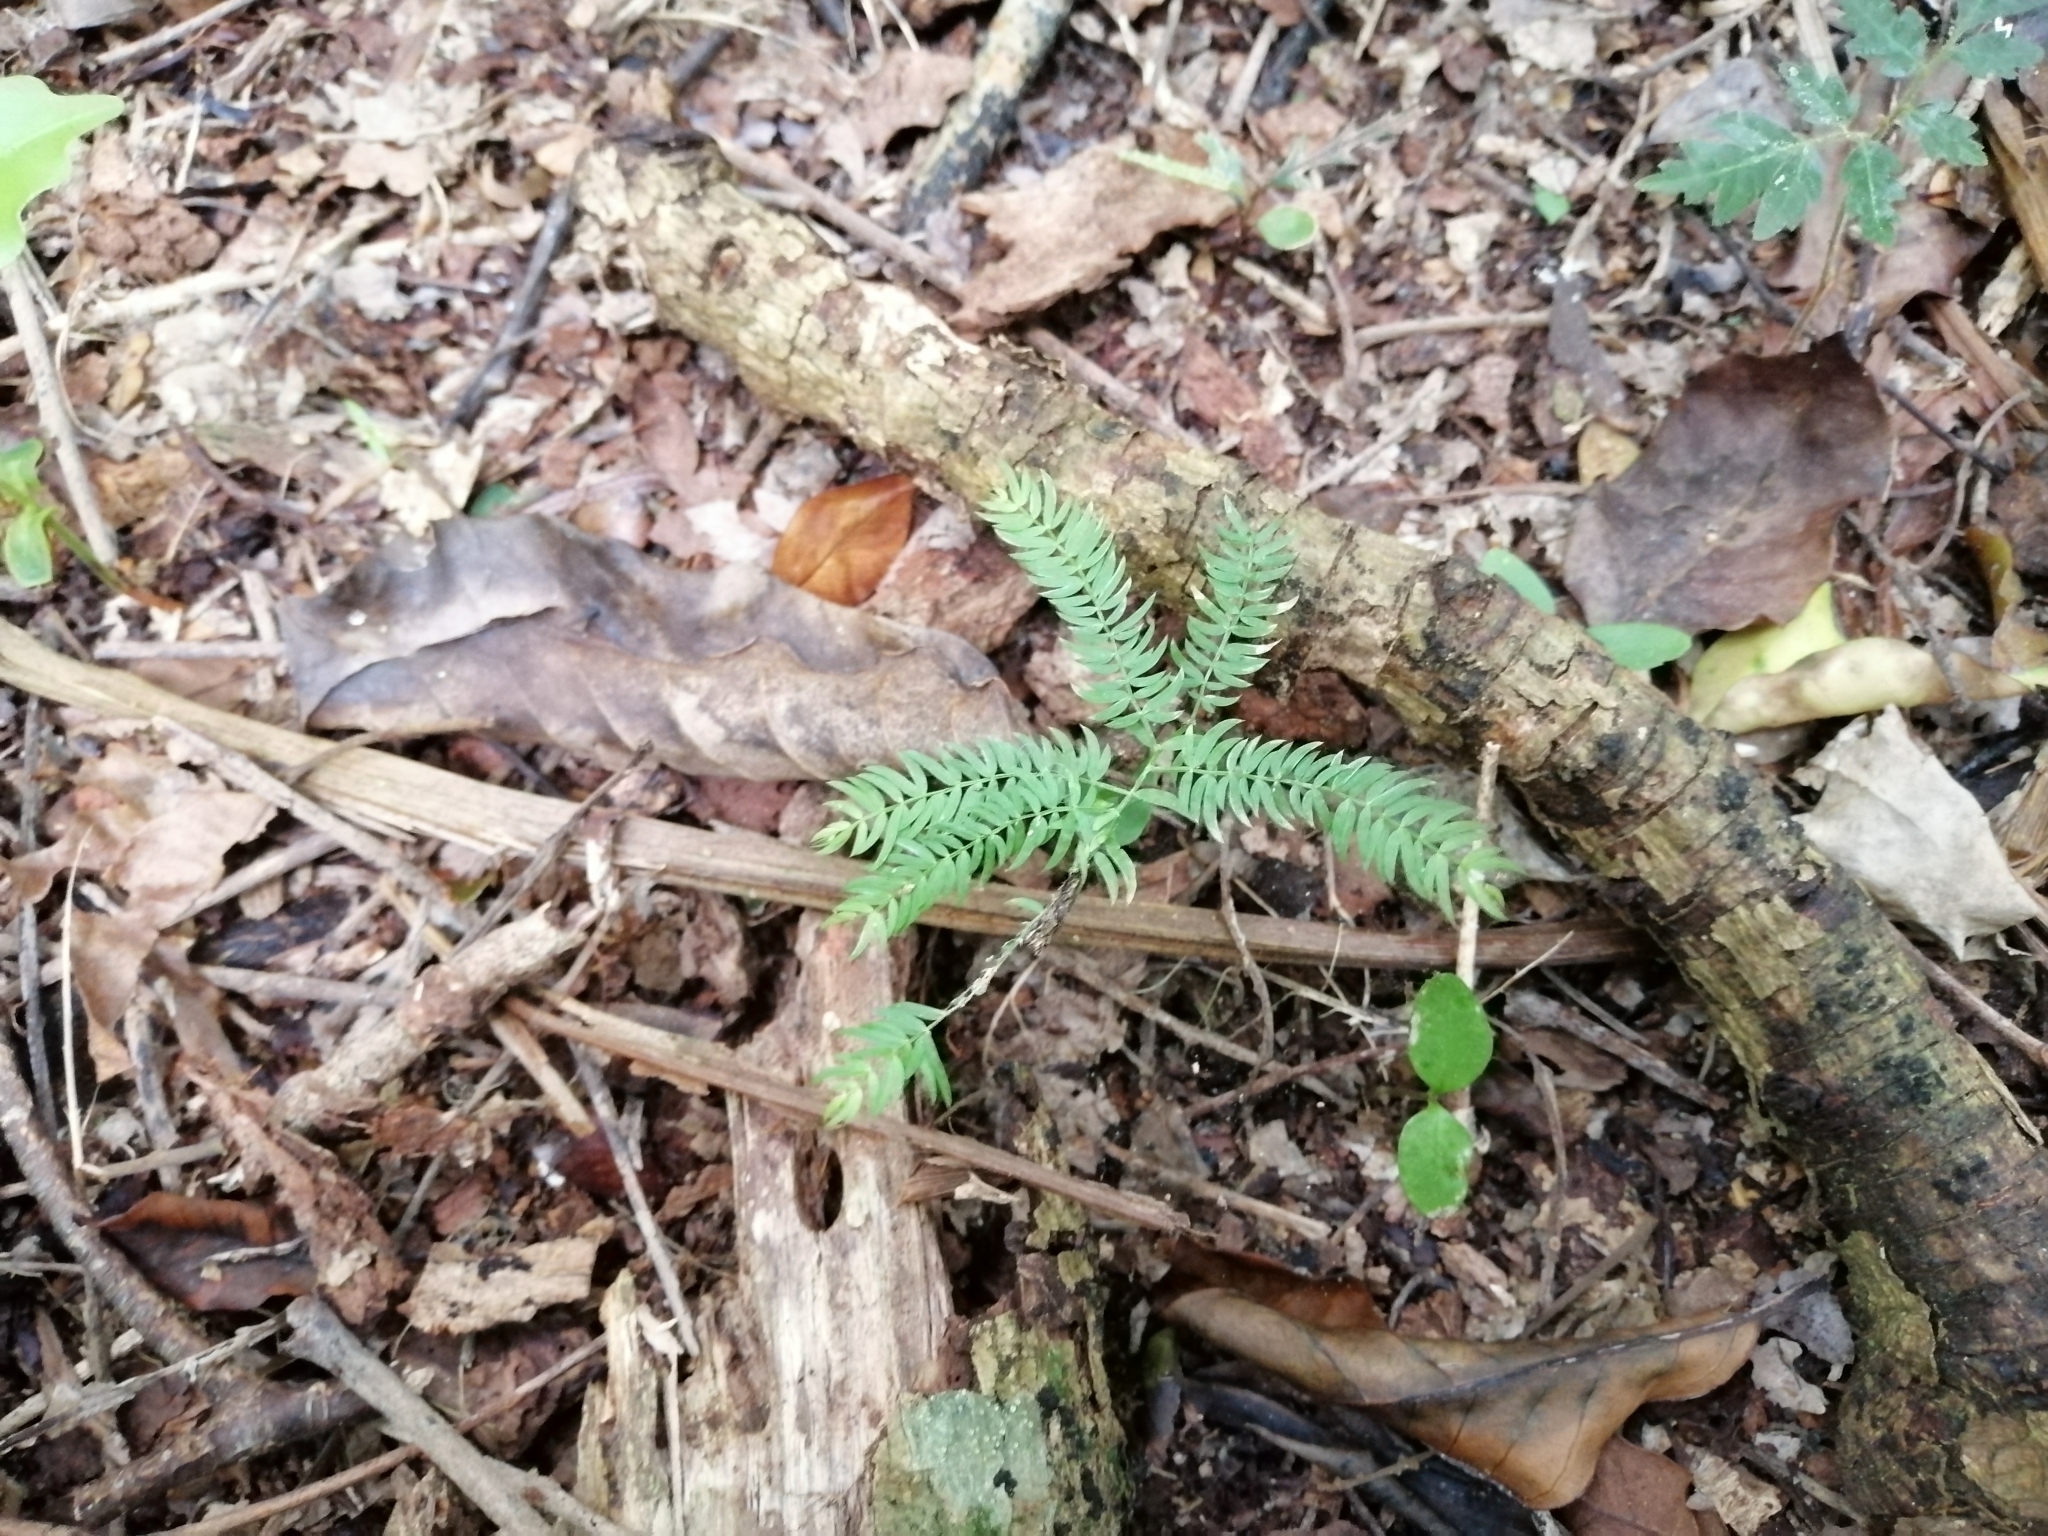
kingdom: Plantae
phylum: Tracheophyta
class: Liliopsida
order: Asparagales
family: Asparagaceae
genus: Asparagus
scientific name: Asparagus scandens
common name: Asparagus-fern
